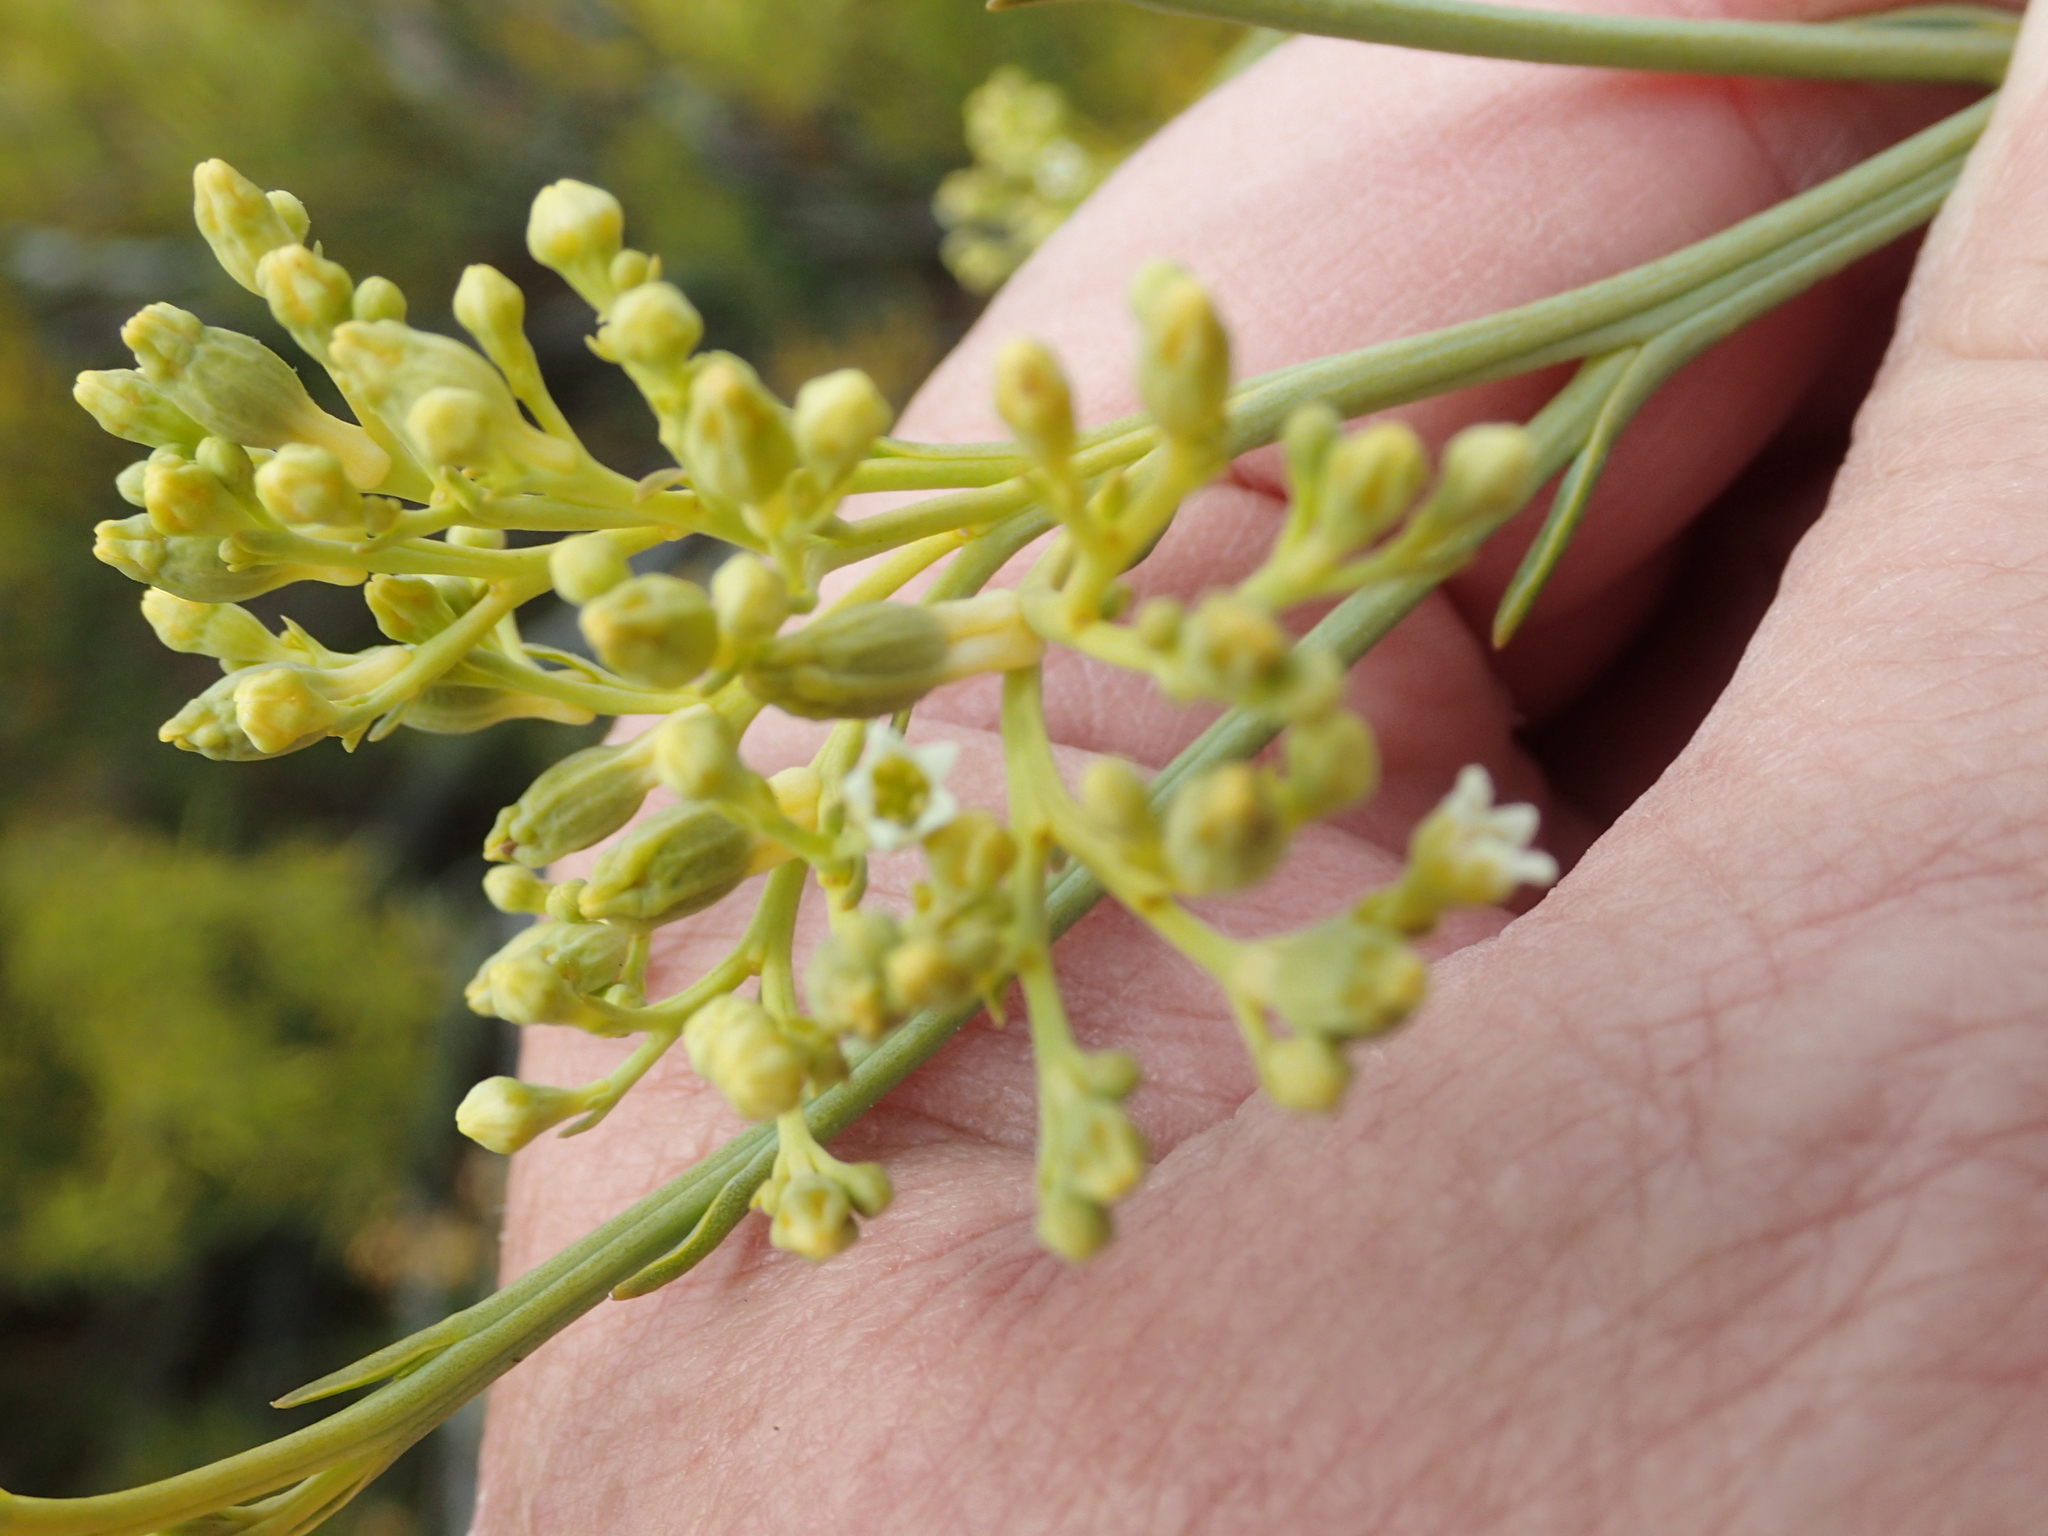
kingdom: Plantae
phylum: Tracheophyta
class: Magnoliopsida
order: Santalales
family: Thesiaceae
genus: Thesium
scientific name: Thesium strictum
